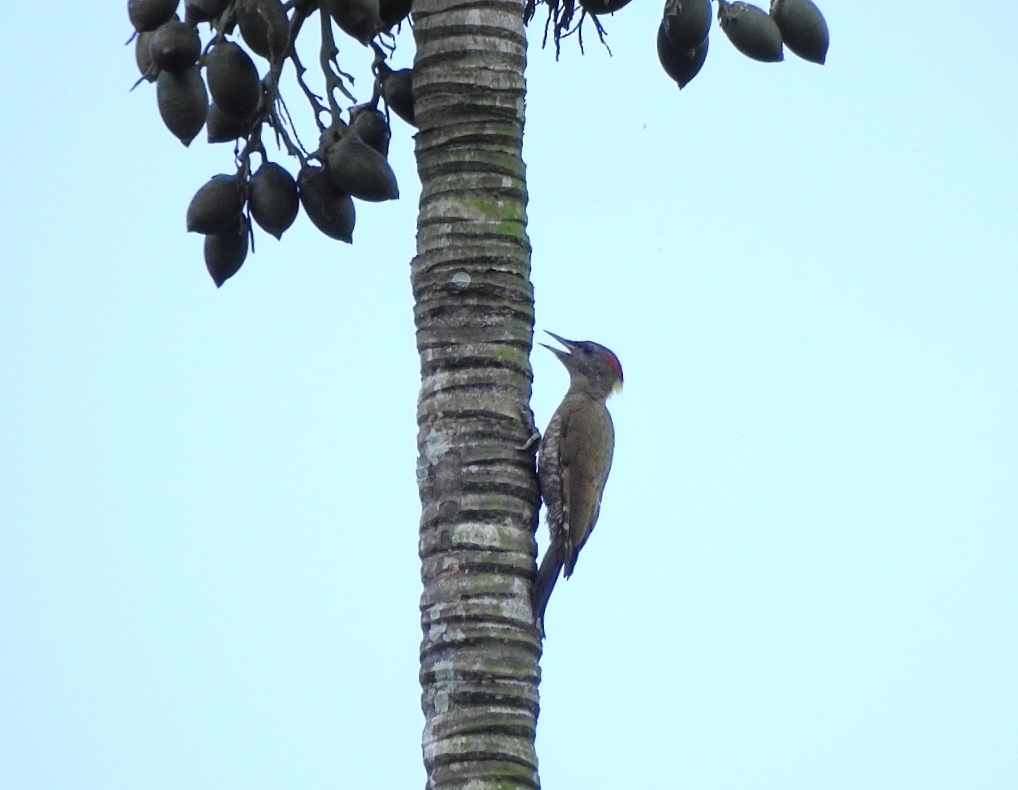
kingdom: Animalia
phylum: Chordata
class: Aves
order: Piciformes
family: Picidae
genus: Picus
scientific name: Picus chlorolophus
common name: Lesser yellownape
